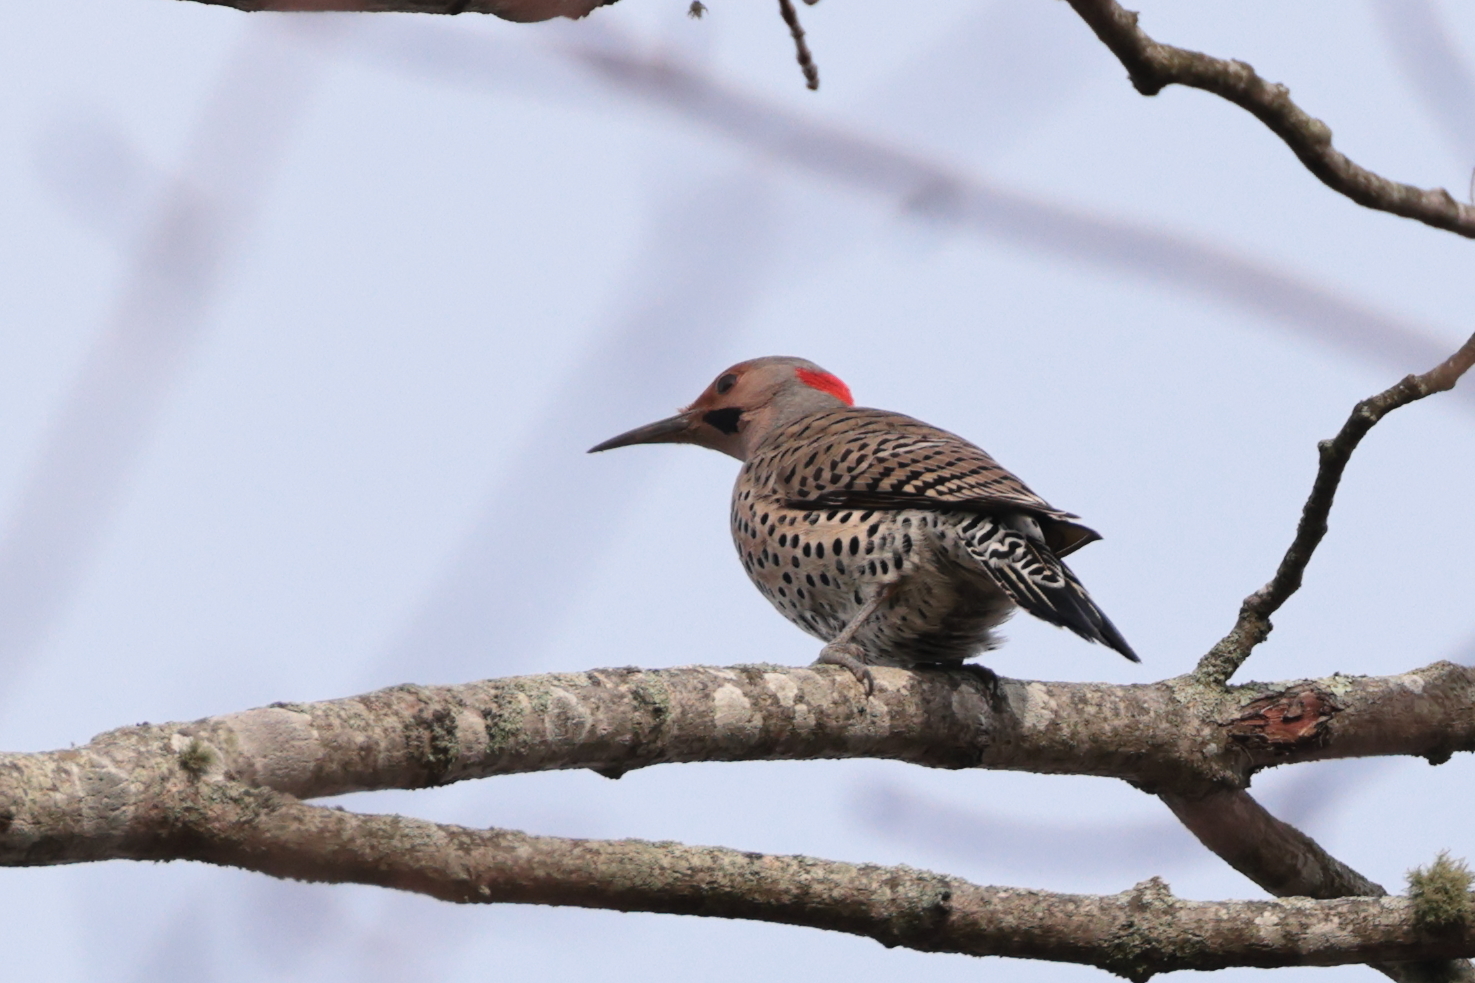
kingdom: Animalia
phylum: Chordata
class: Aves
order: Piciformes
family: Picidae
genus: Colaptes
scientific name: Colaptes auratus
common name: Northern flicker
